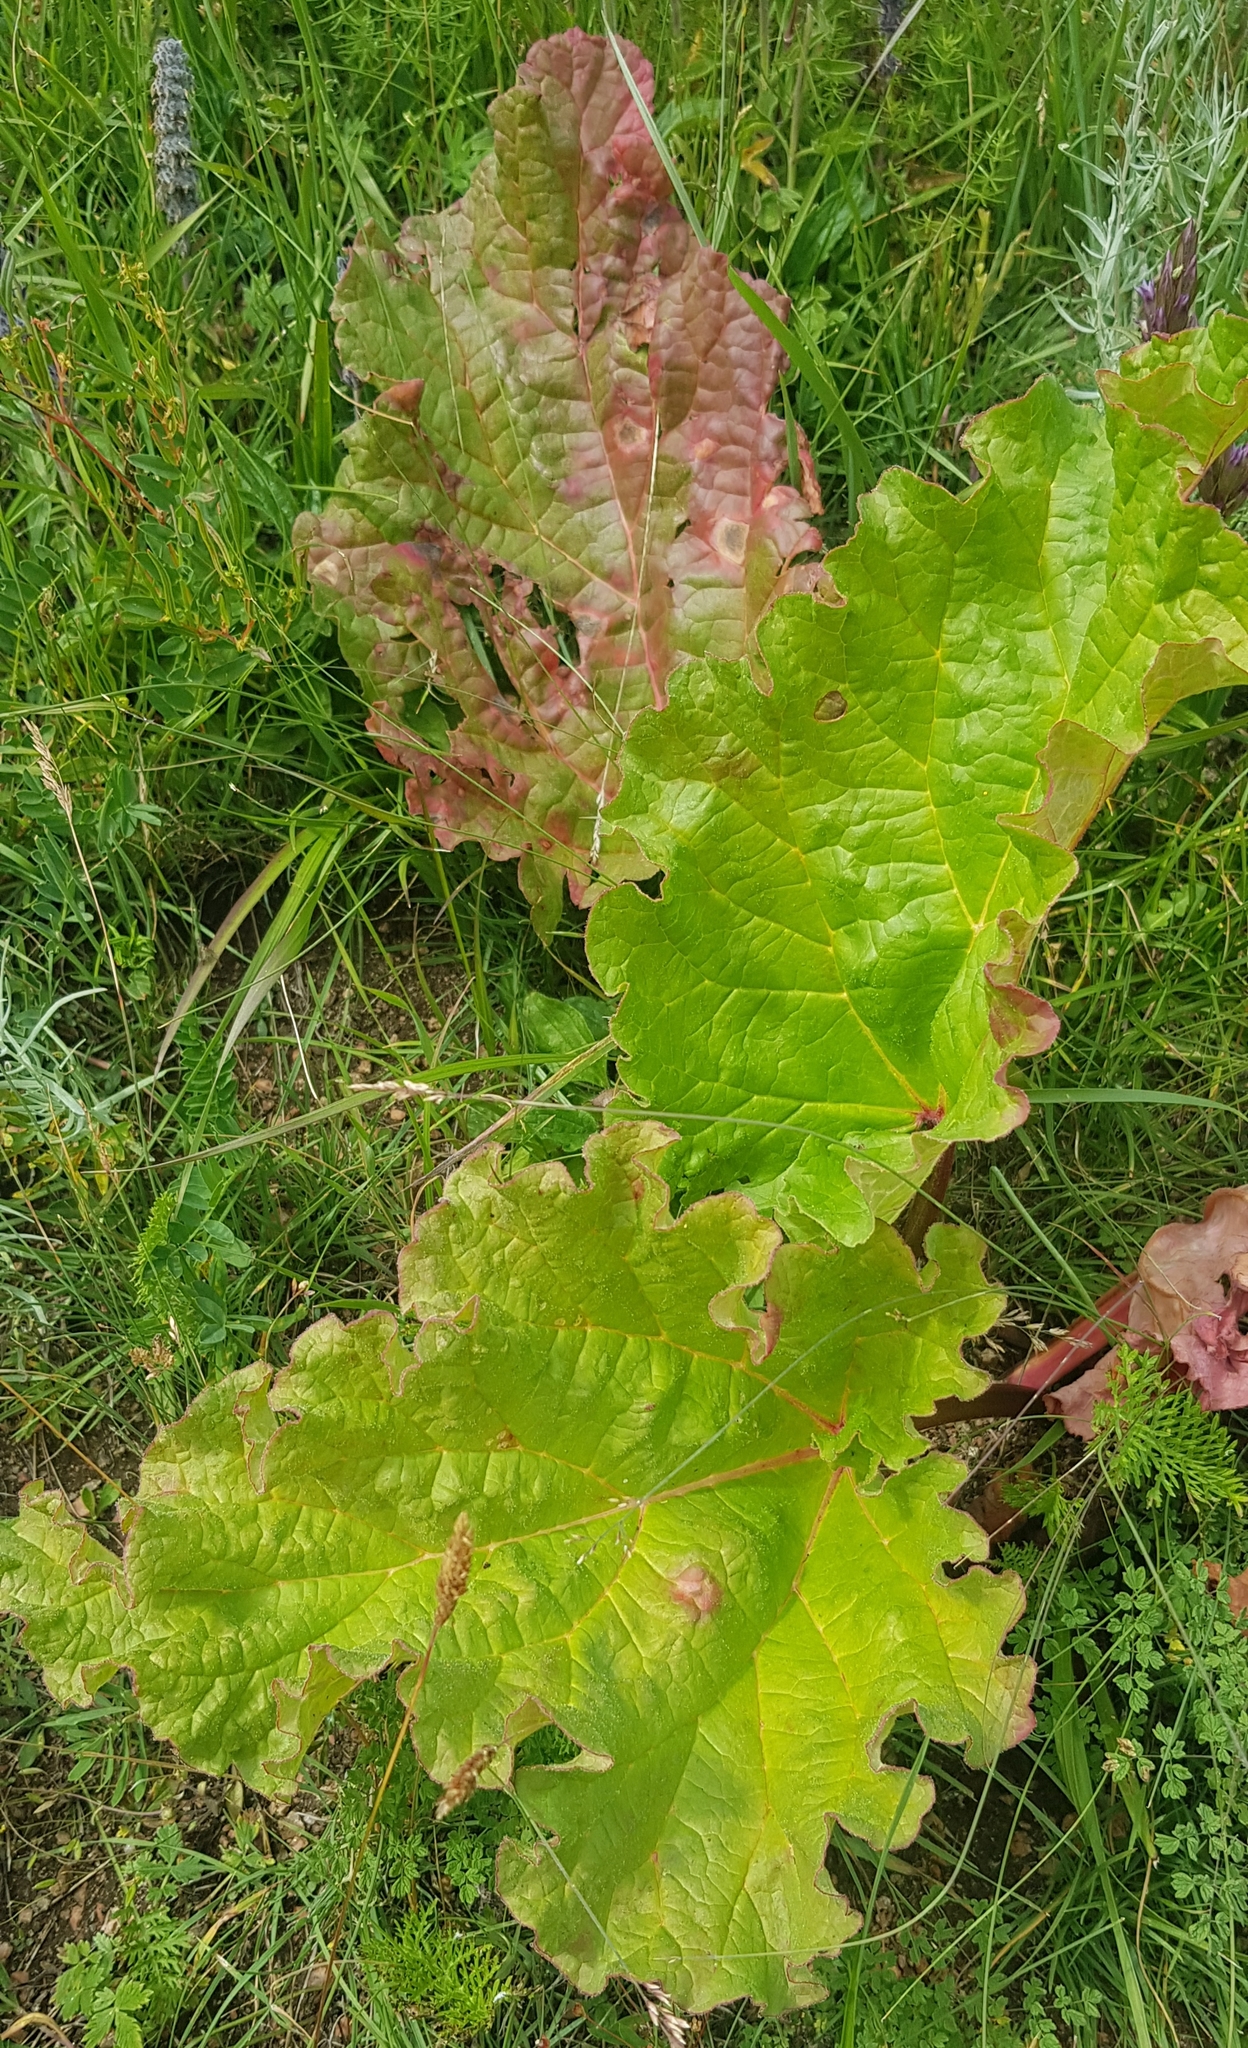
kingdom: Plantae
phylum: Tracheophyta
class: Magnoliopsida
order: Caryophyllales
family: Polygonaceae
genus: Rheum
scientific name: Rheum rhabarbarum
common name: Garden rhubarb
